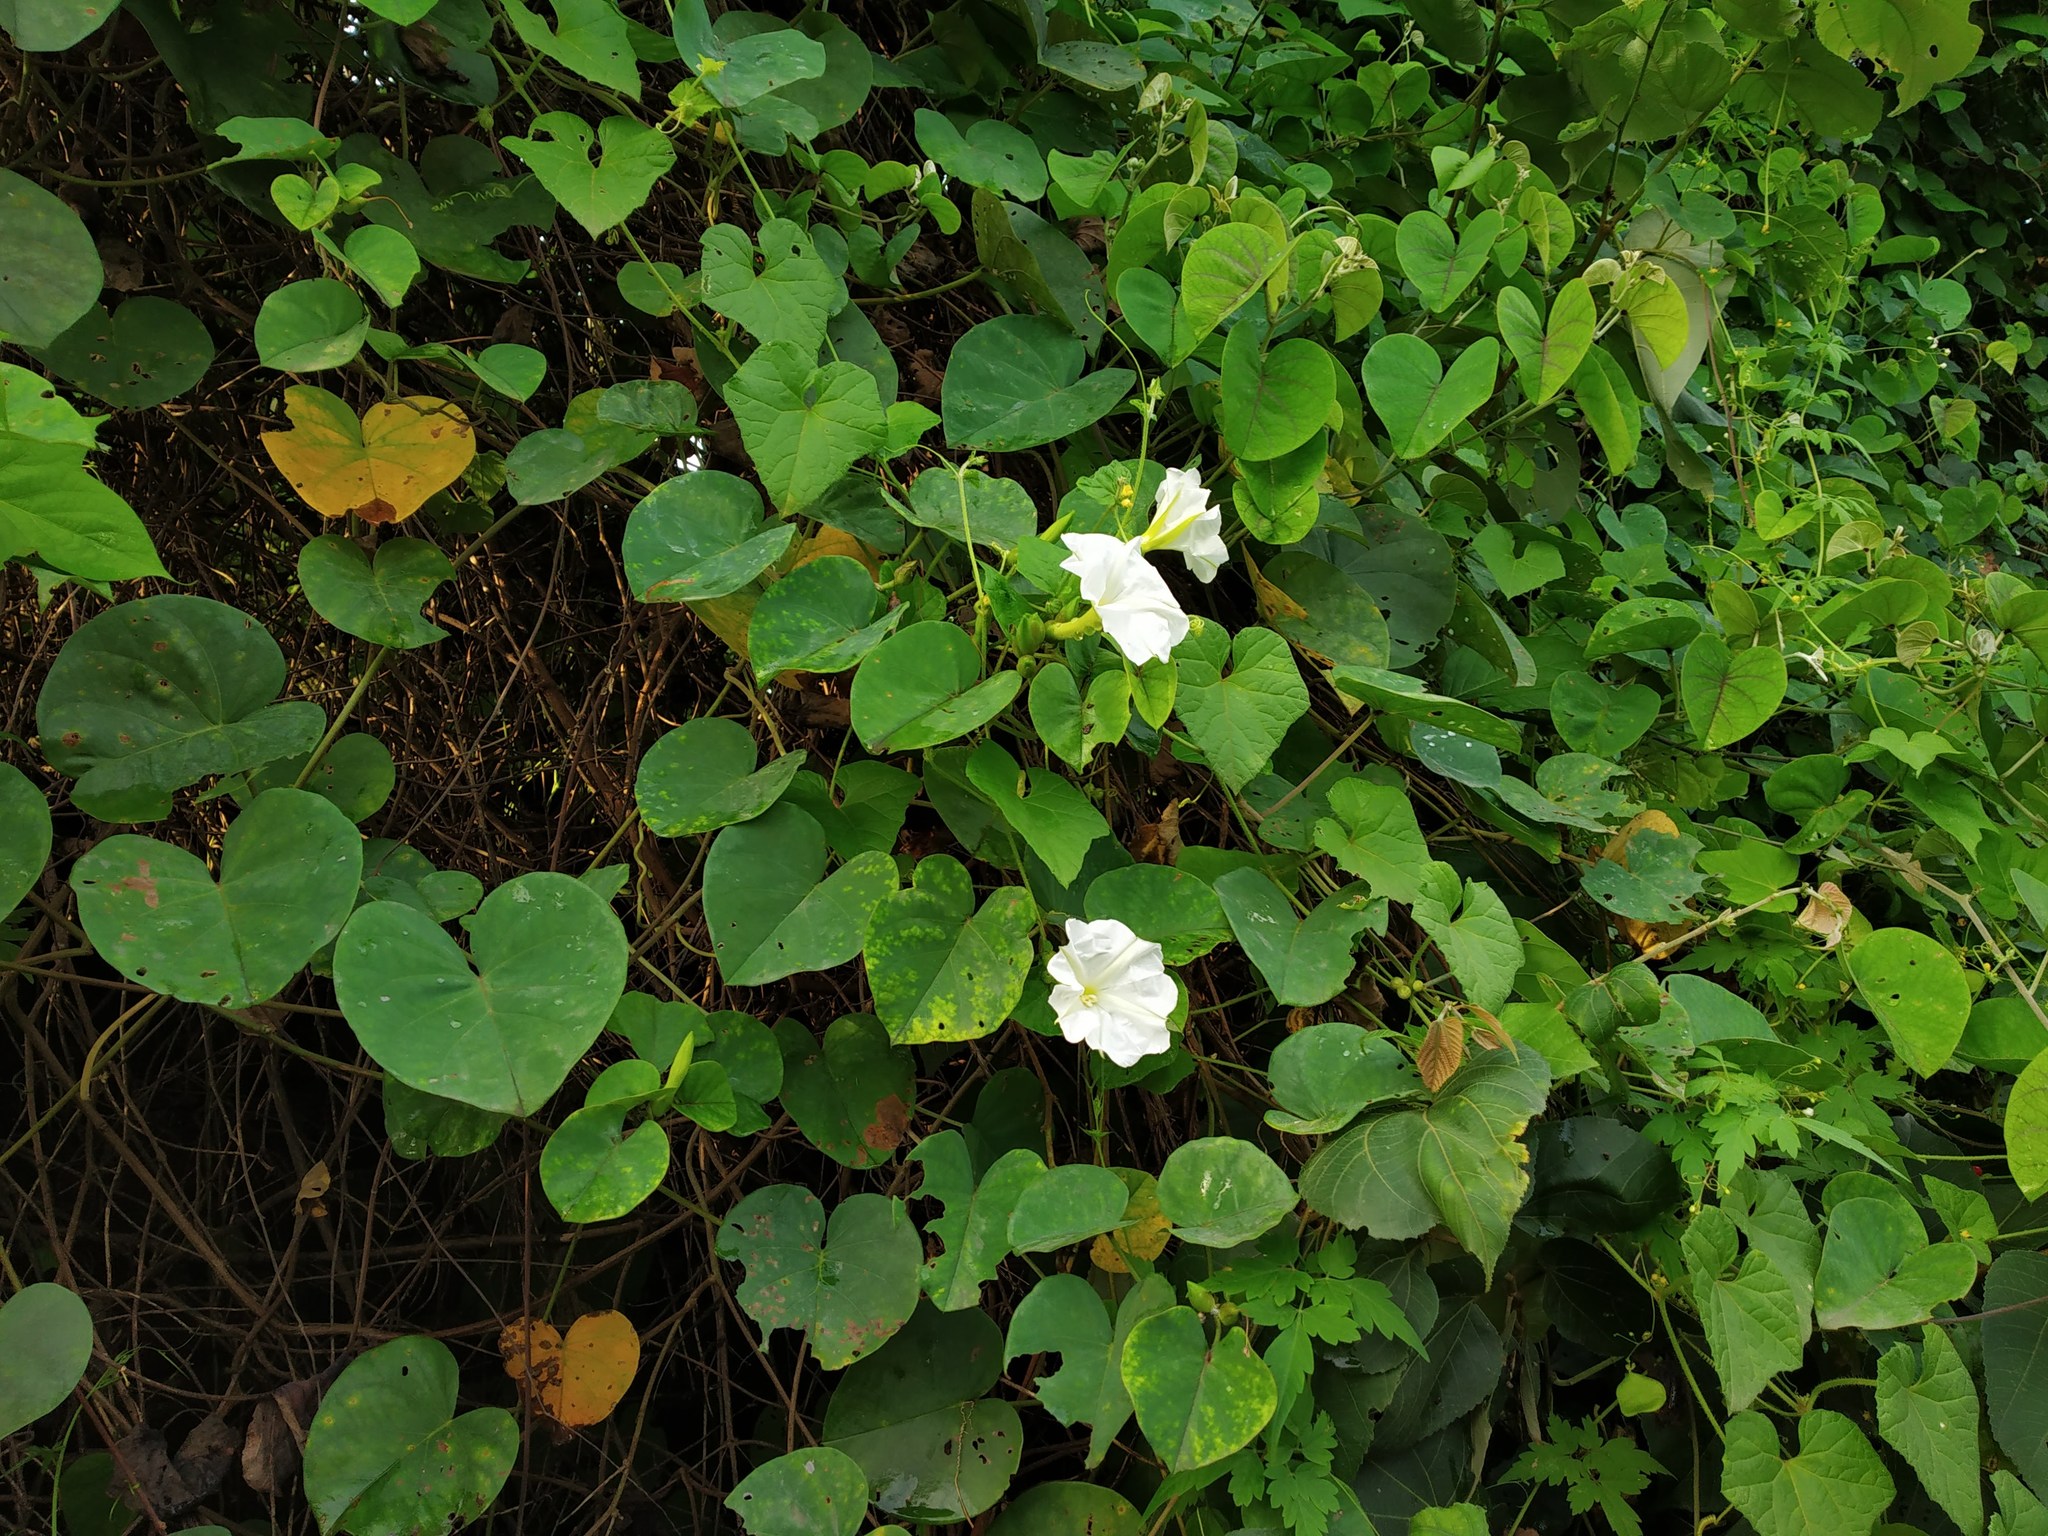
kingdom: Plantae
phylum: Tracheophyta
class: Magnoliopsida
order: Solanales
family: Convolvulaceae
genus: Rivea
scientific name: Rivea hypocrateriformis
